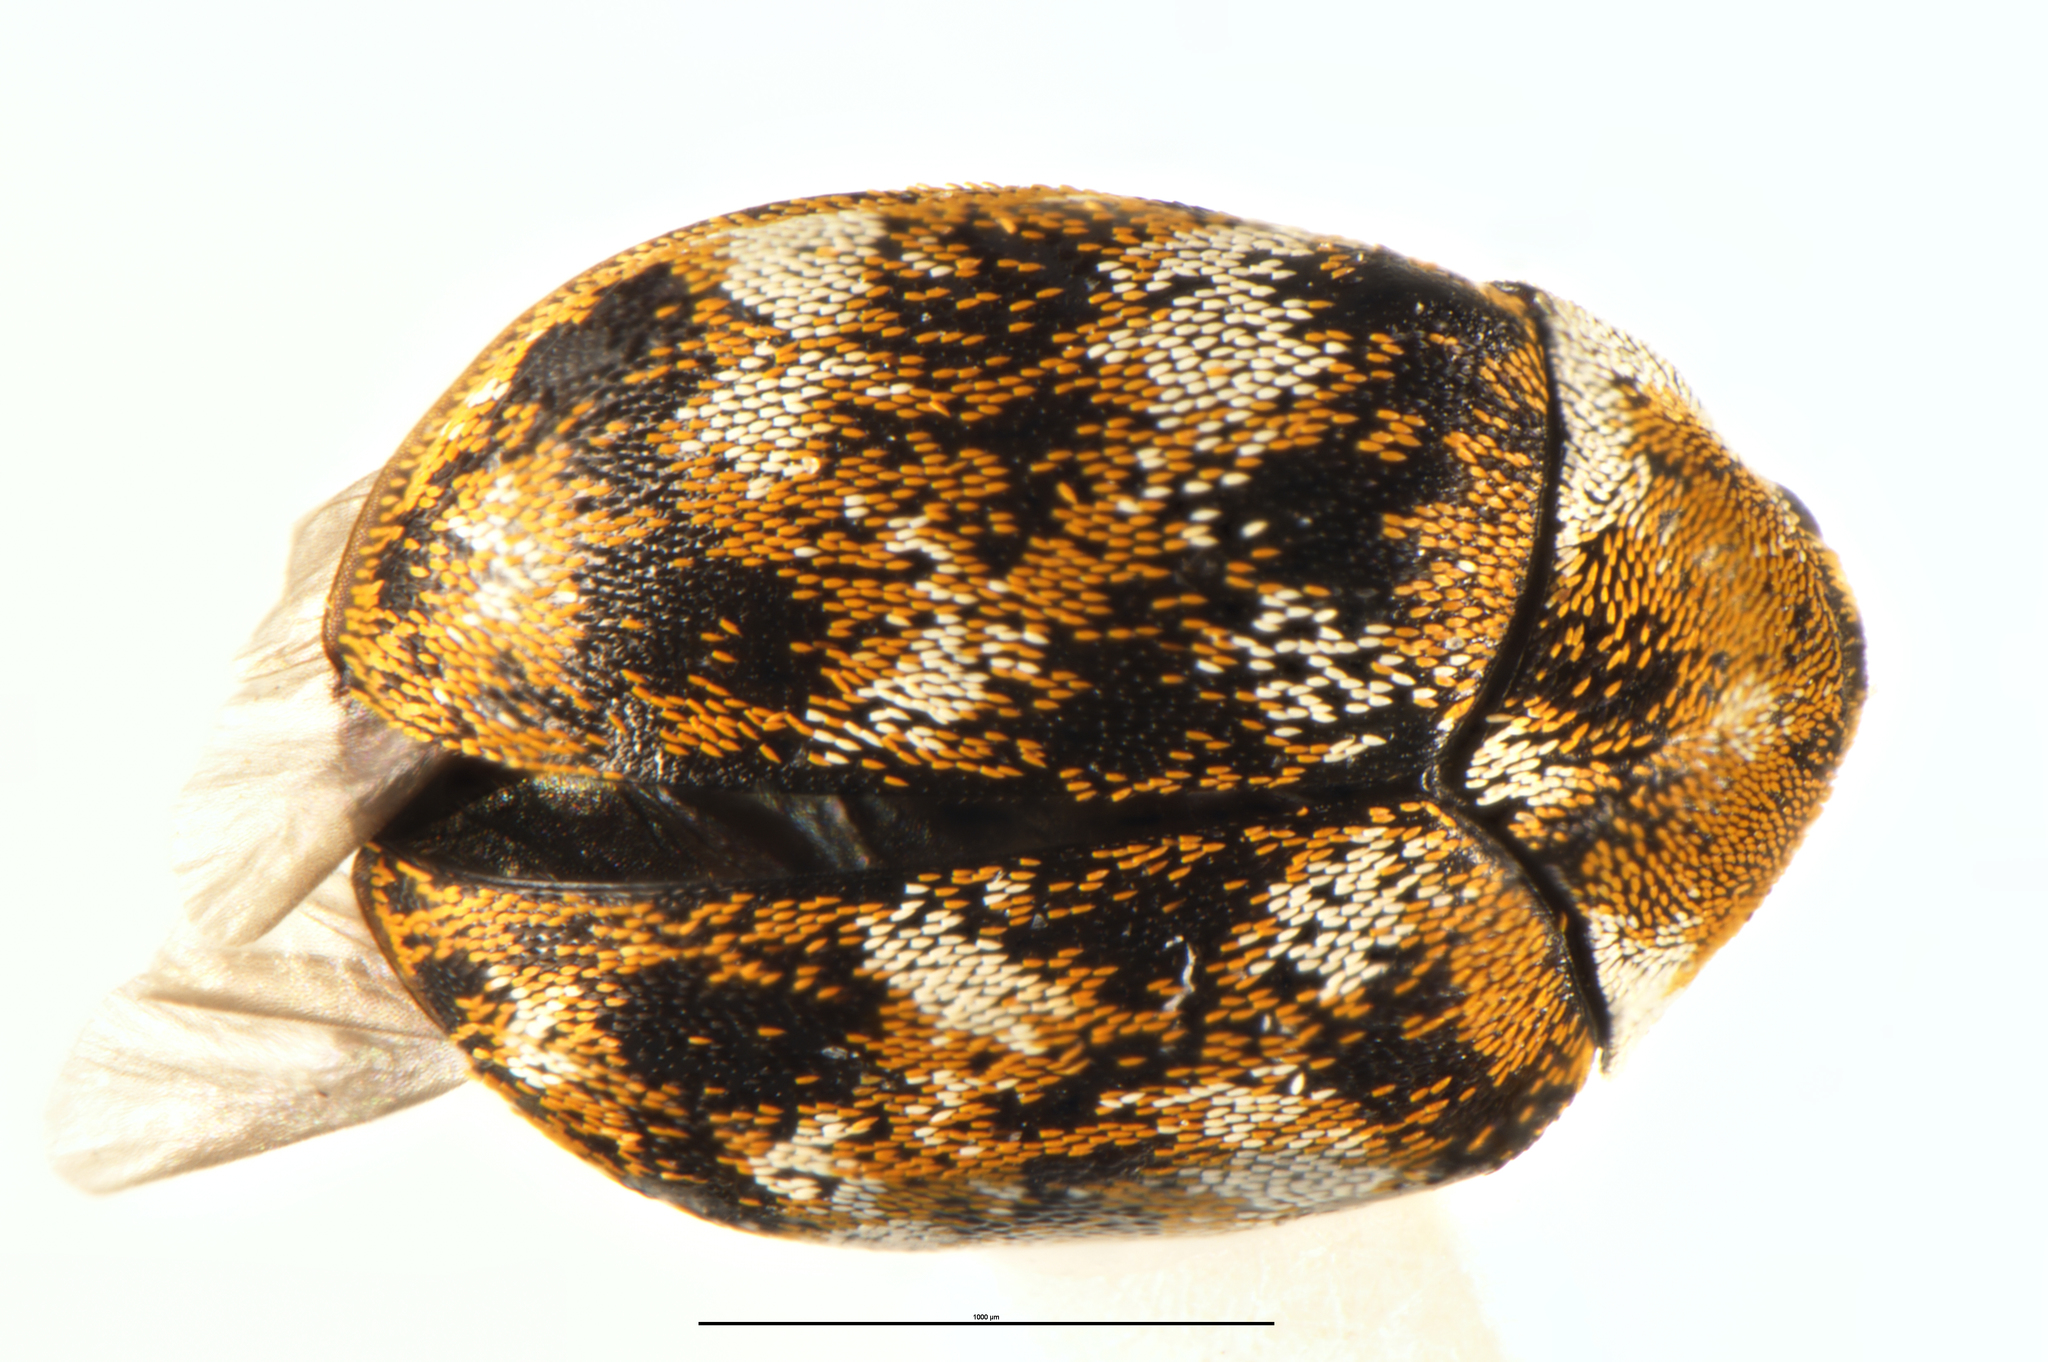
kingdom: Animalia
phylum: Arthropoda
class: Insecta
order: Coleoptera
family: Dermestidae
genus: Anthrenus
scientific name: Anthrenus verbasci
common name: Varied carpet beetle
